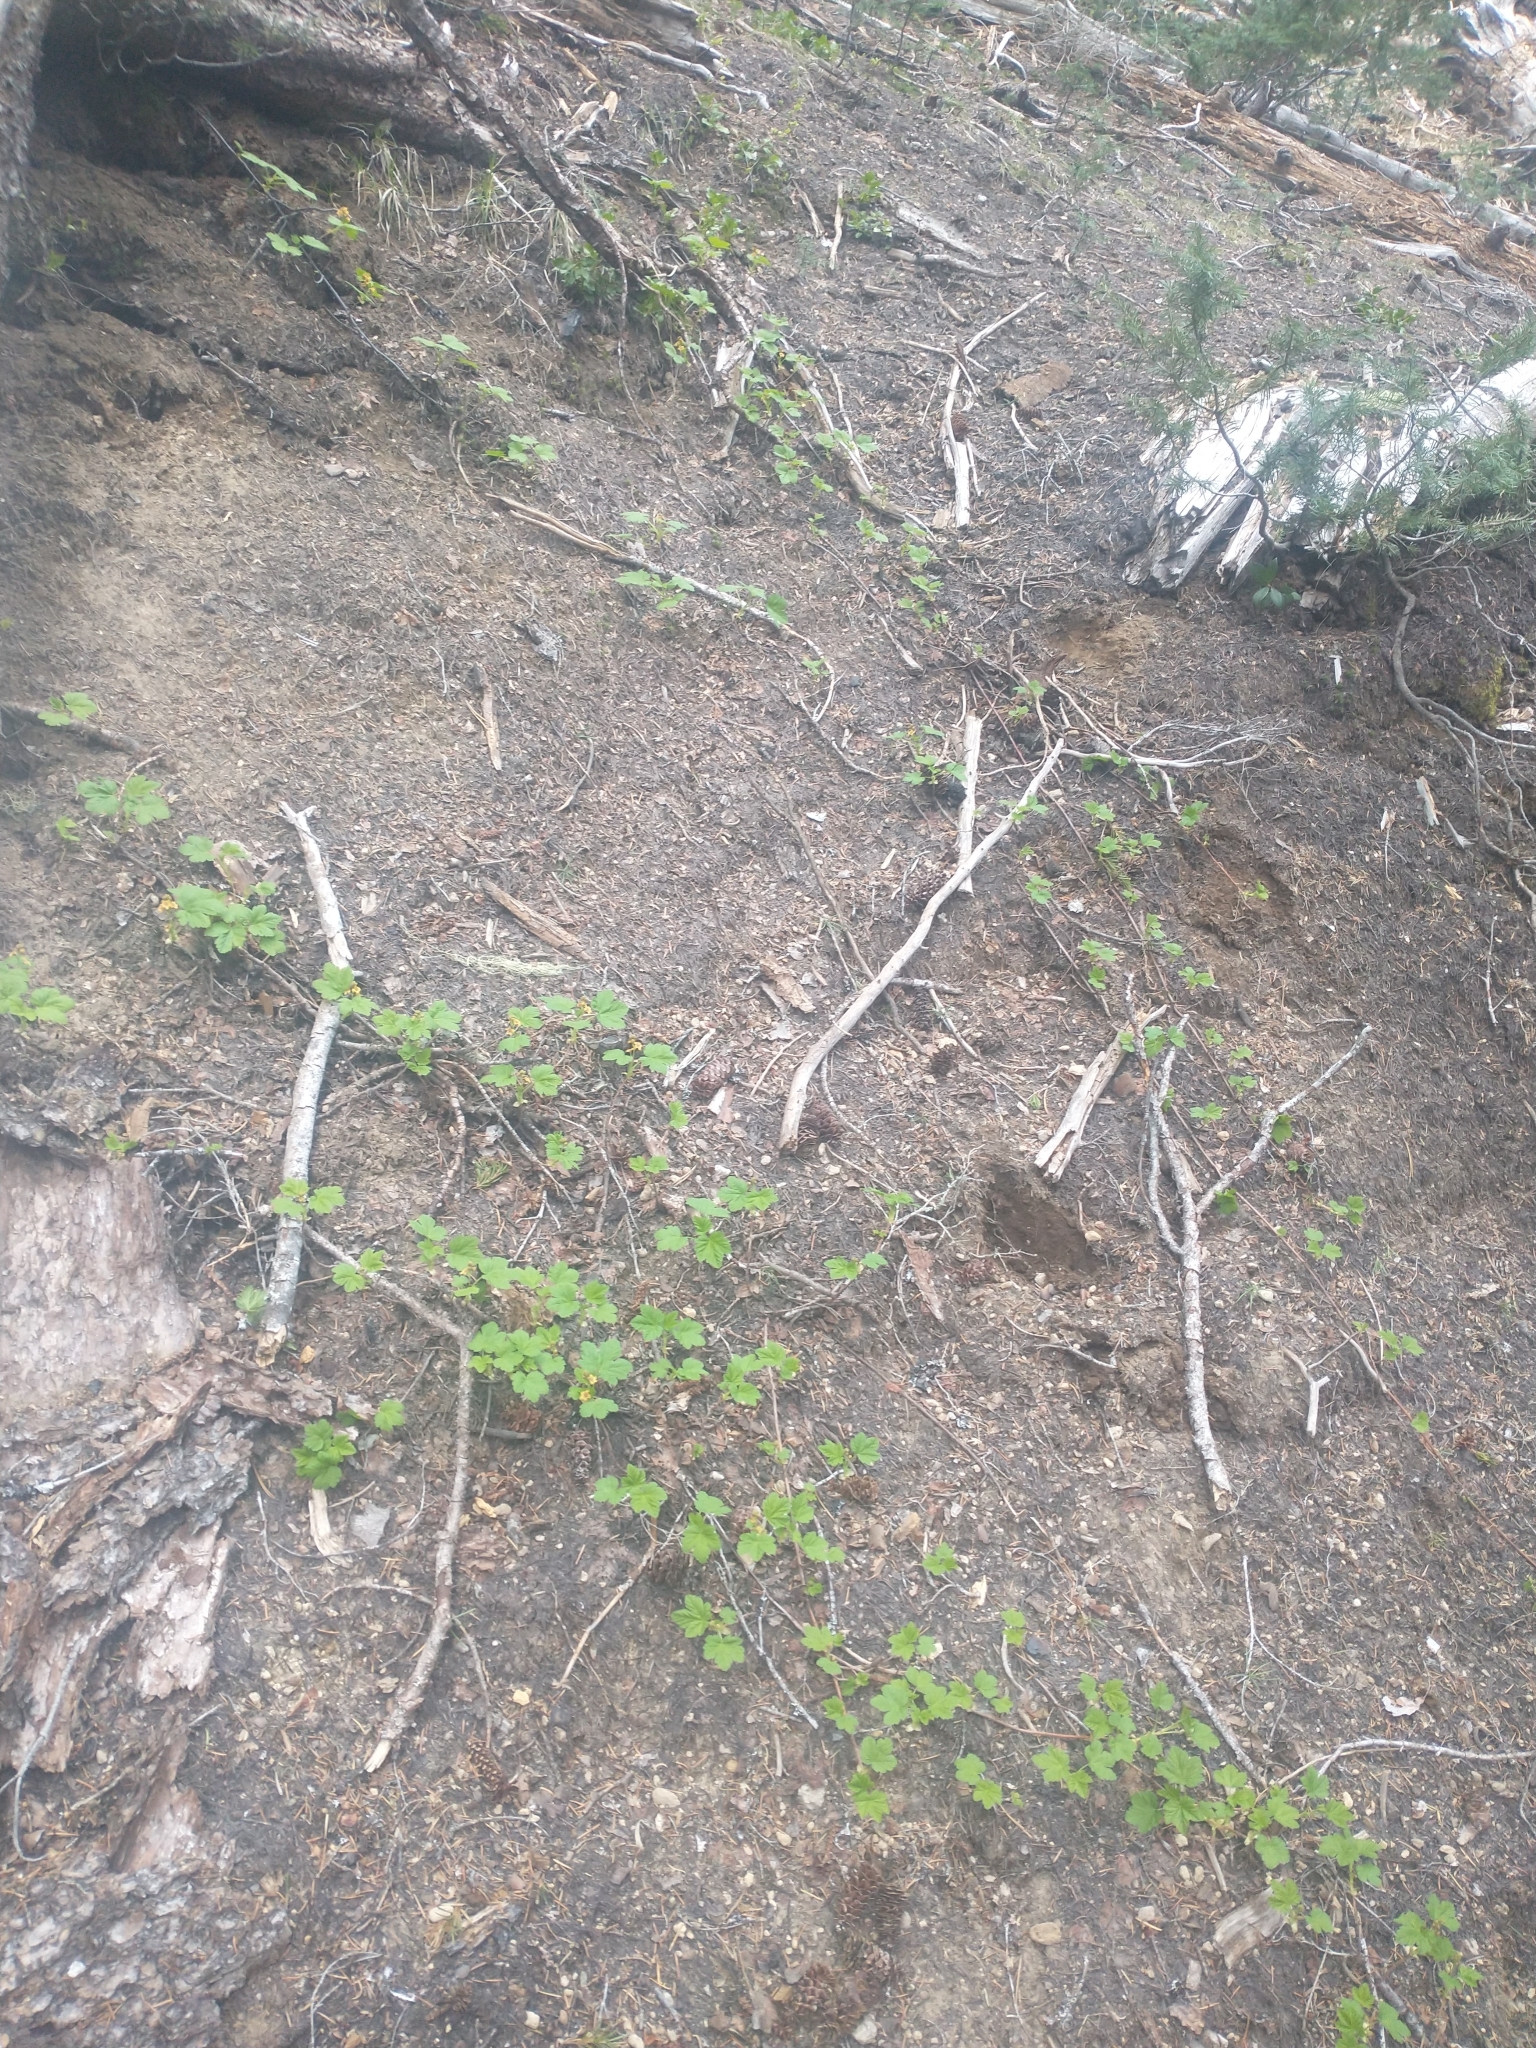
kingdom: Plantae
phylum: Tracheophyta
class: Magnoliopsida
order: Saxifragales
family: Grossulariaceae
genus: Ribes
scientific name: Ribes erythrocarpum
